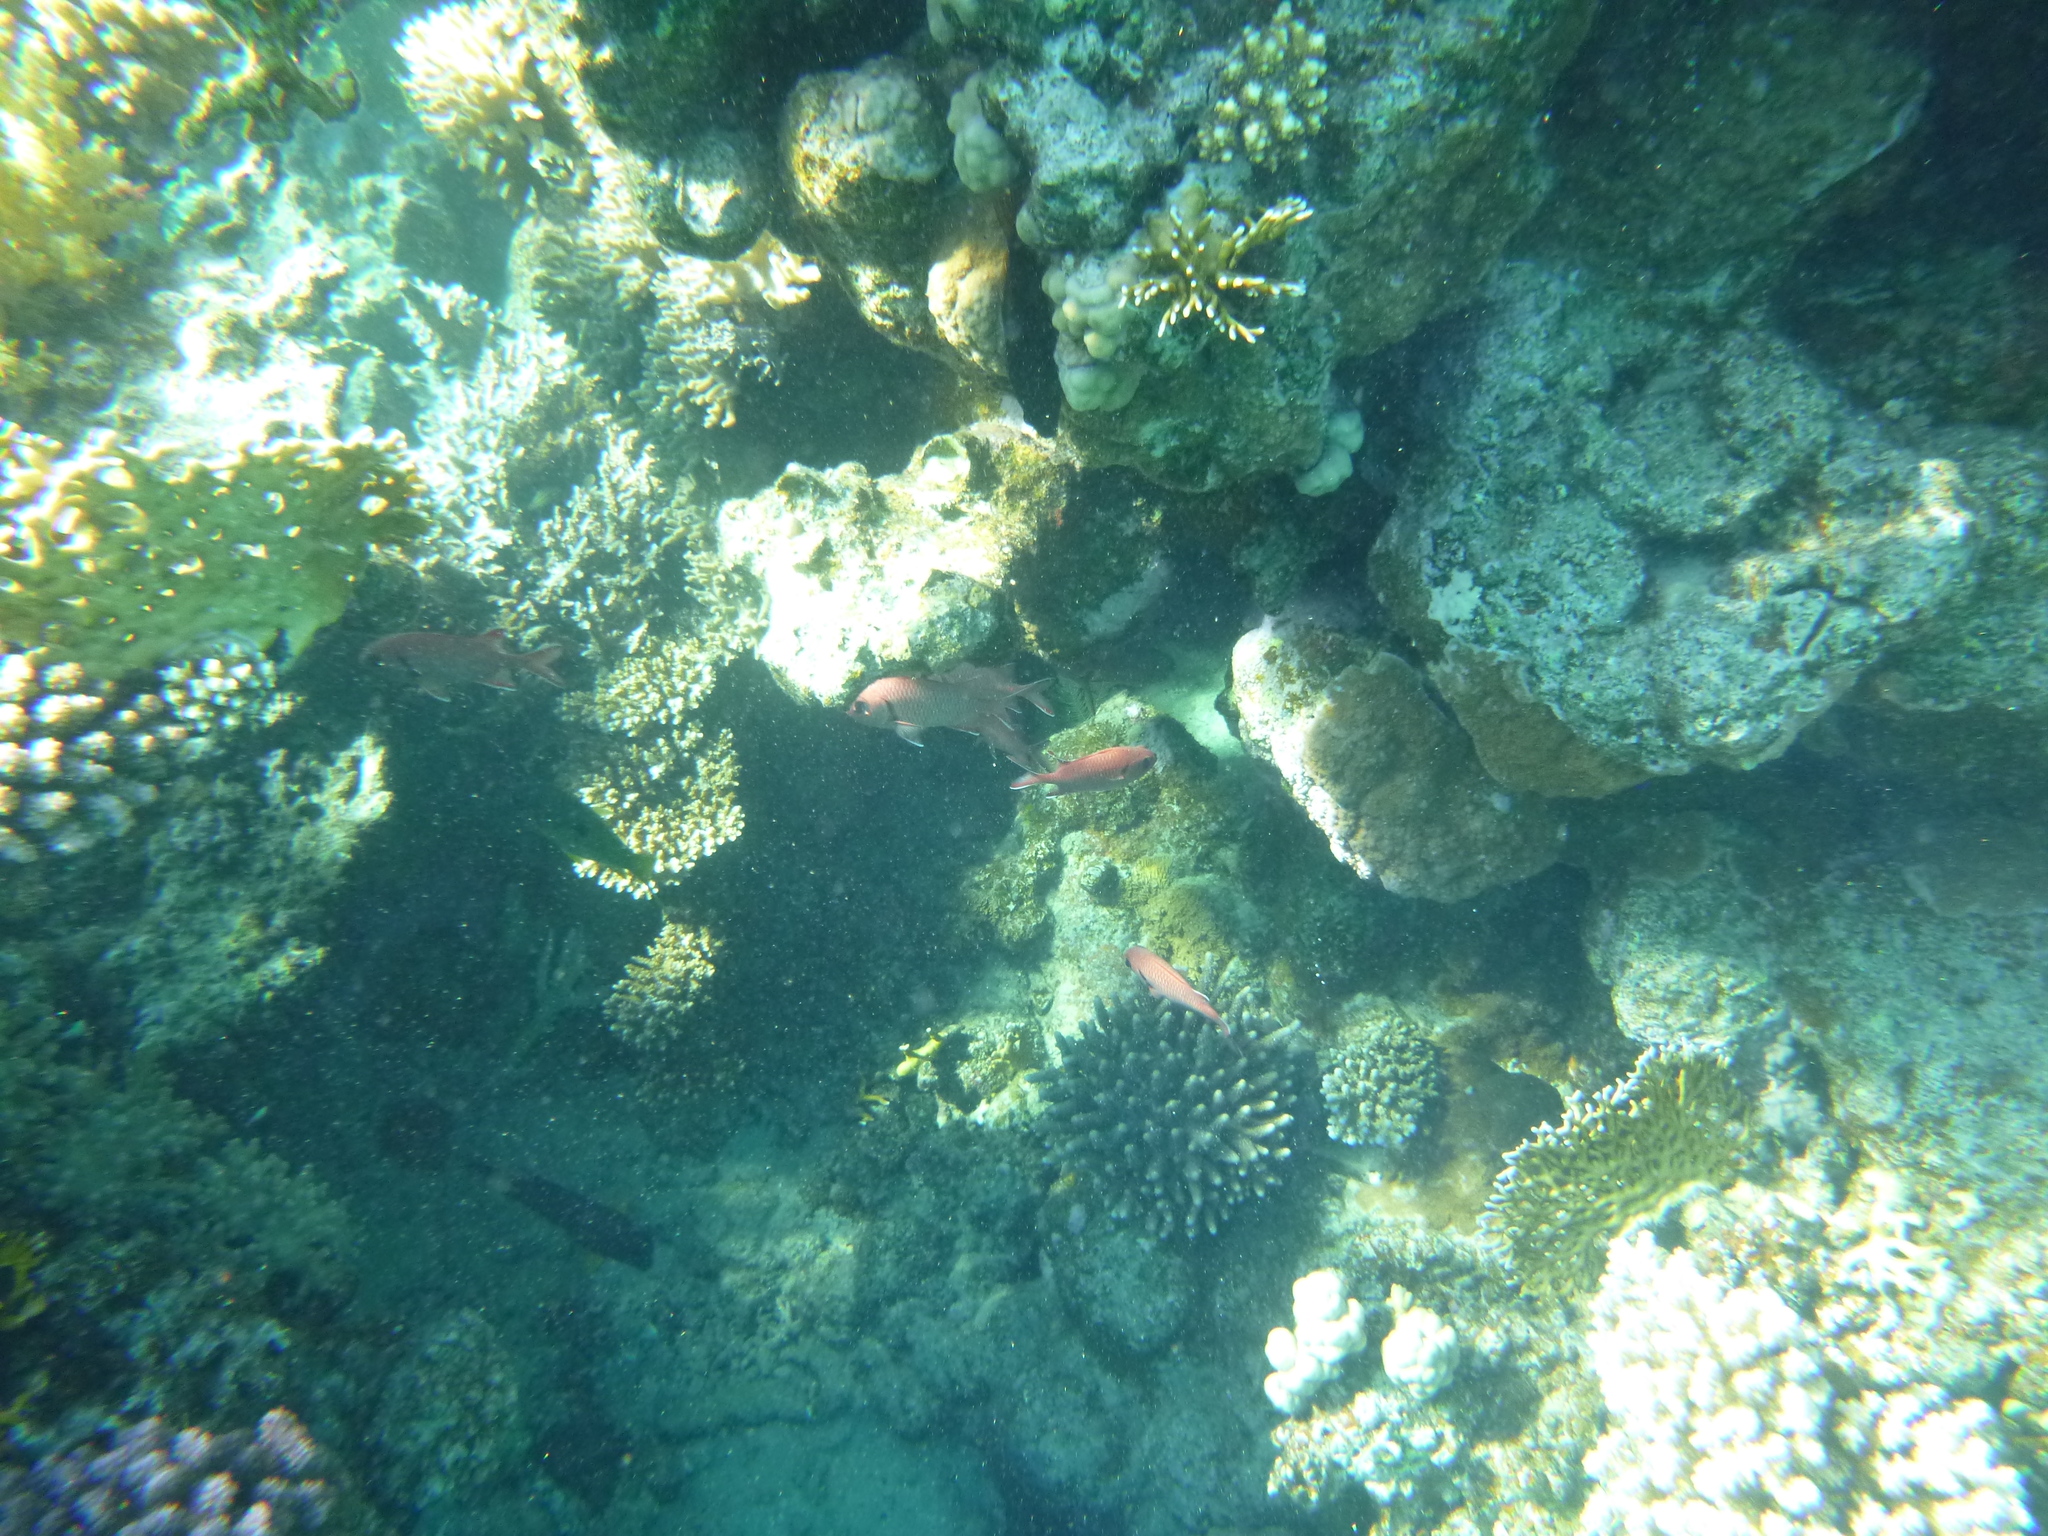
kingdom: Animalia
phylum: Chordata
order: Beryciformes
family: Holocentridae
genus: Myripristis
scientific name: Myripristis murdjan
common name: Big-eye soldierfish
